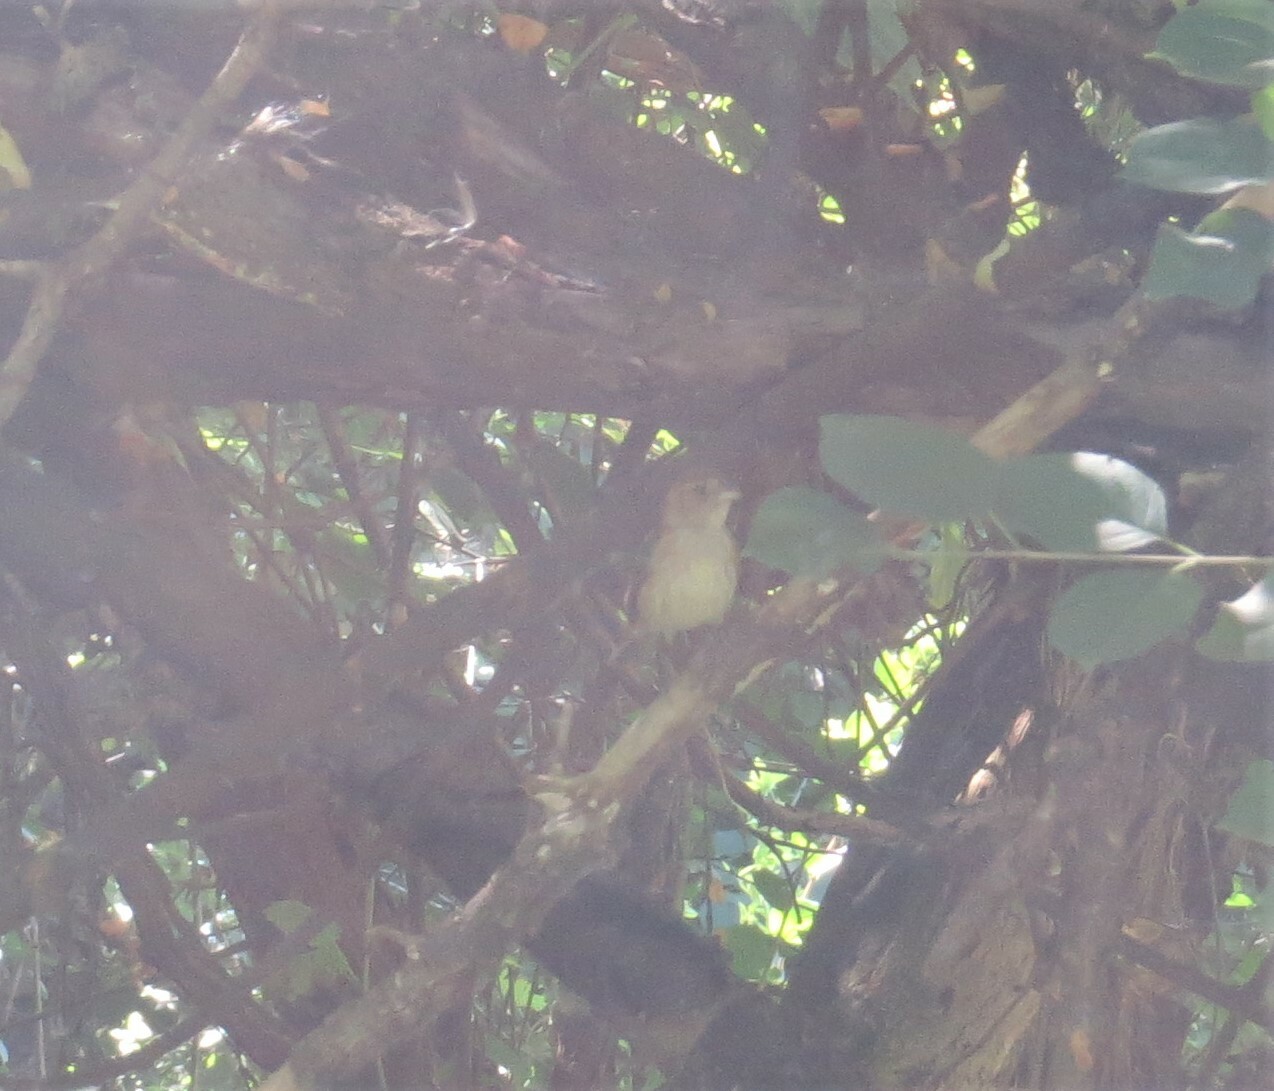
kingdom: Animalia
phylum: Chordata
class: Aves
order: Passeriformes
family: Cardinalidae
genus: Passerina
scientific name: Passerina cyanea
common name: Indigo bunting
